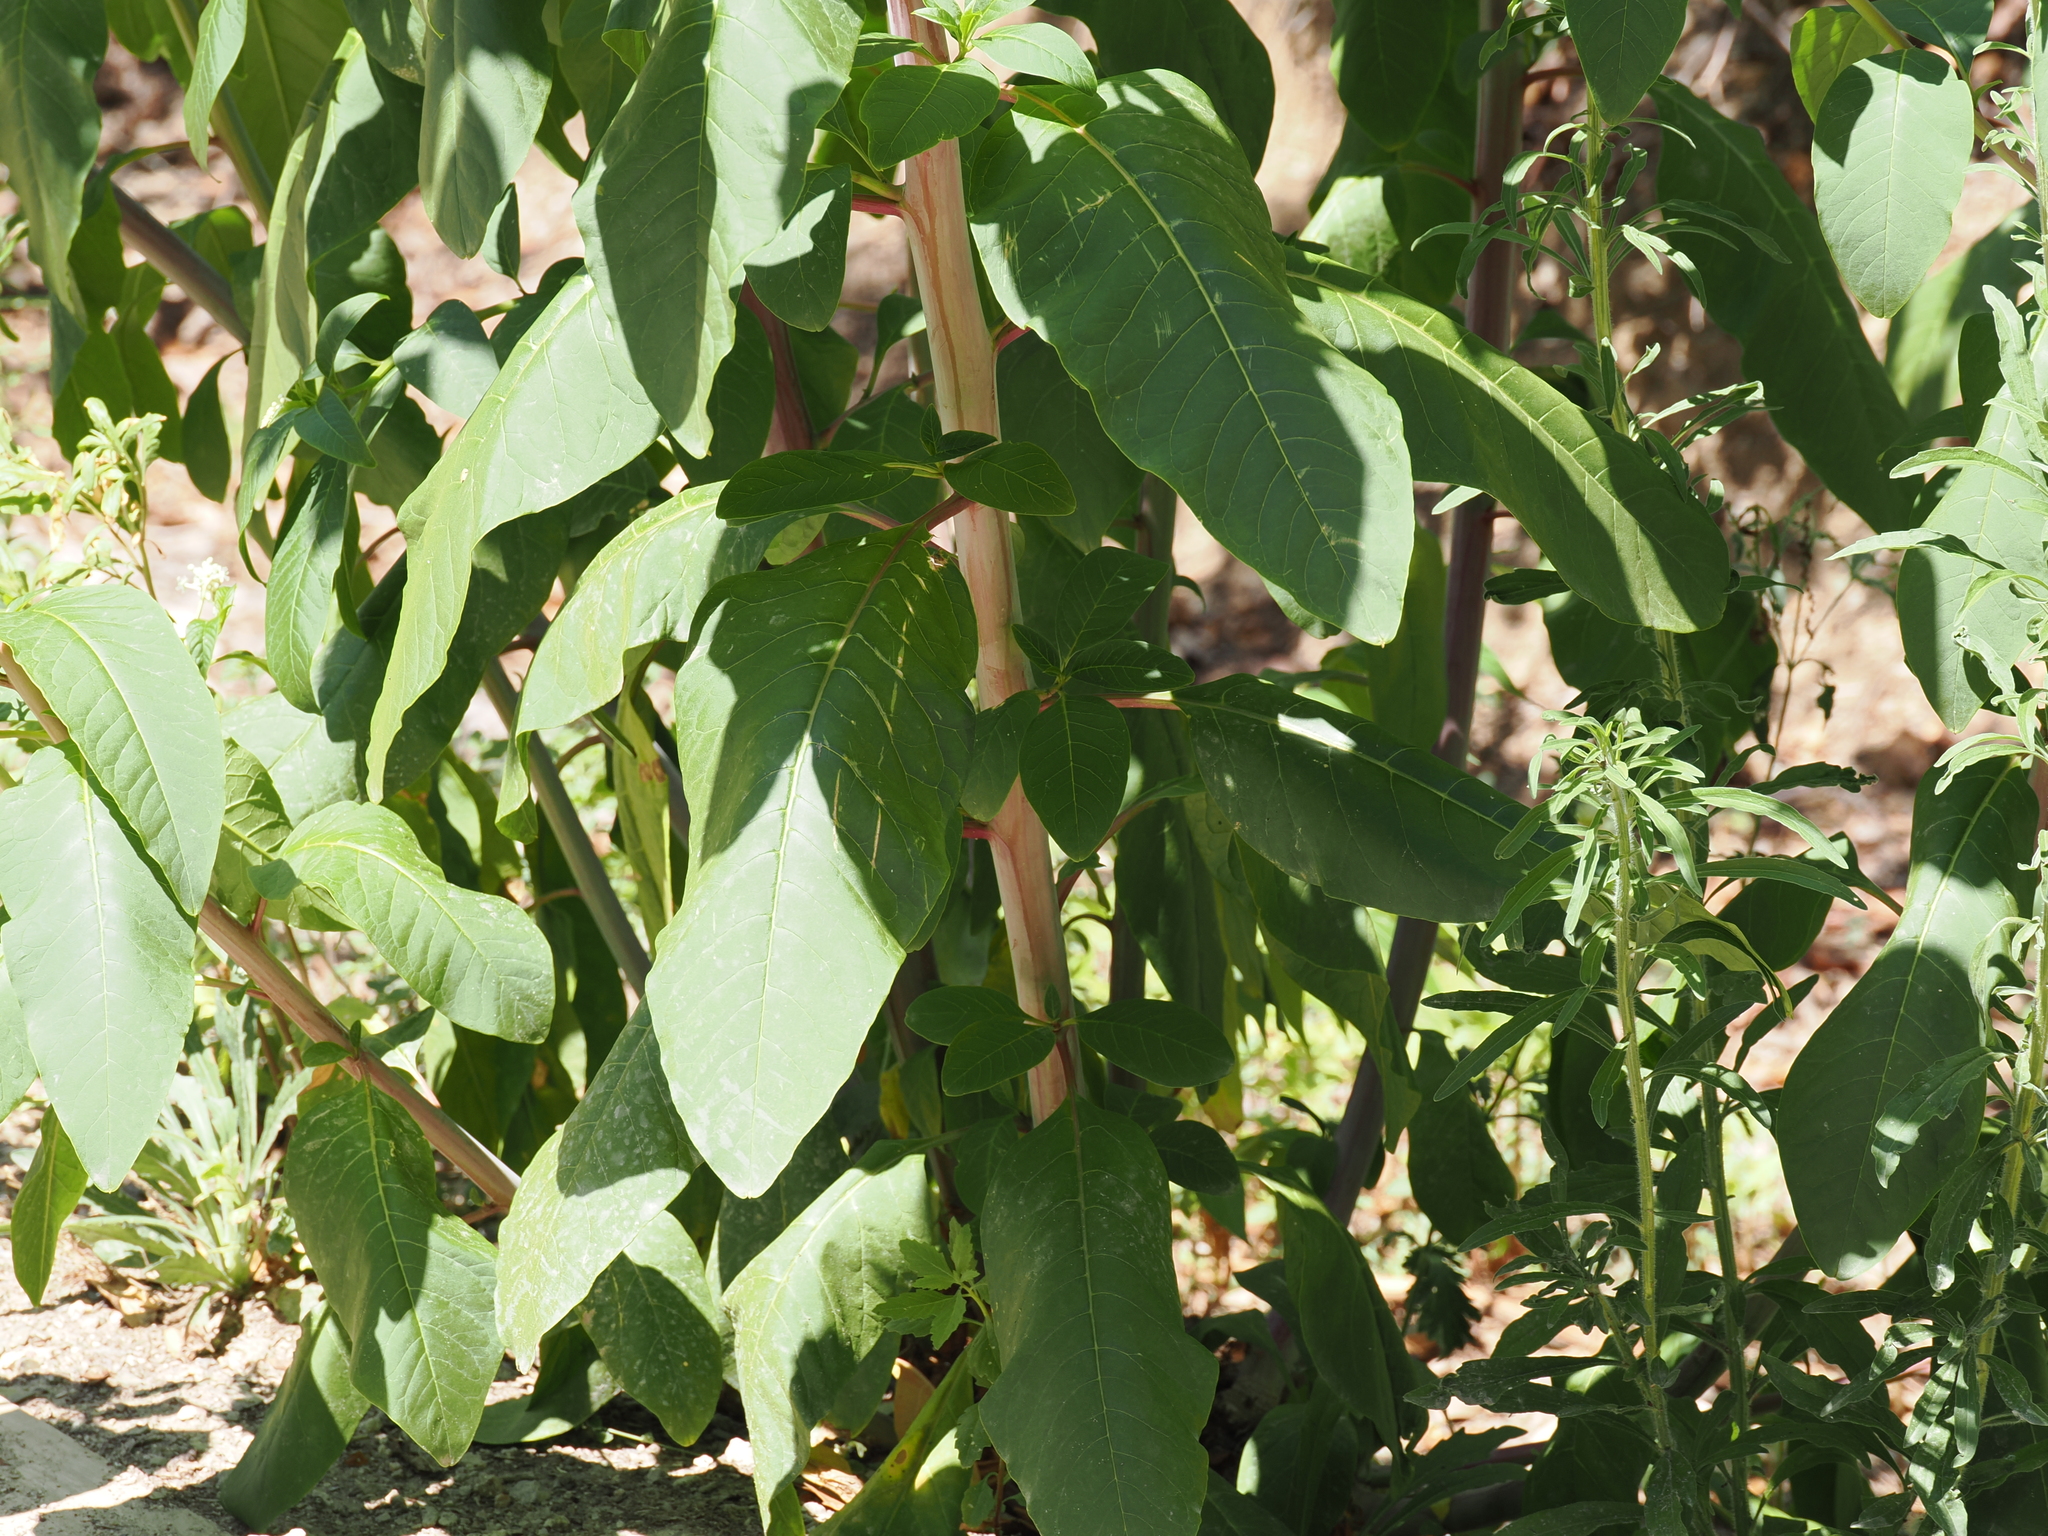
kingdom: Plantae
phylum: Tracheophyta
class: Magnoliopsida
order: Caryophyllales
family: Phytolaccaceae
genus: Phytolacca
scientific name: Phytolacca americana
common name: American pokeweed
